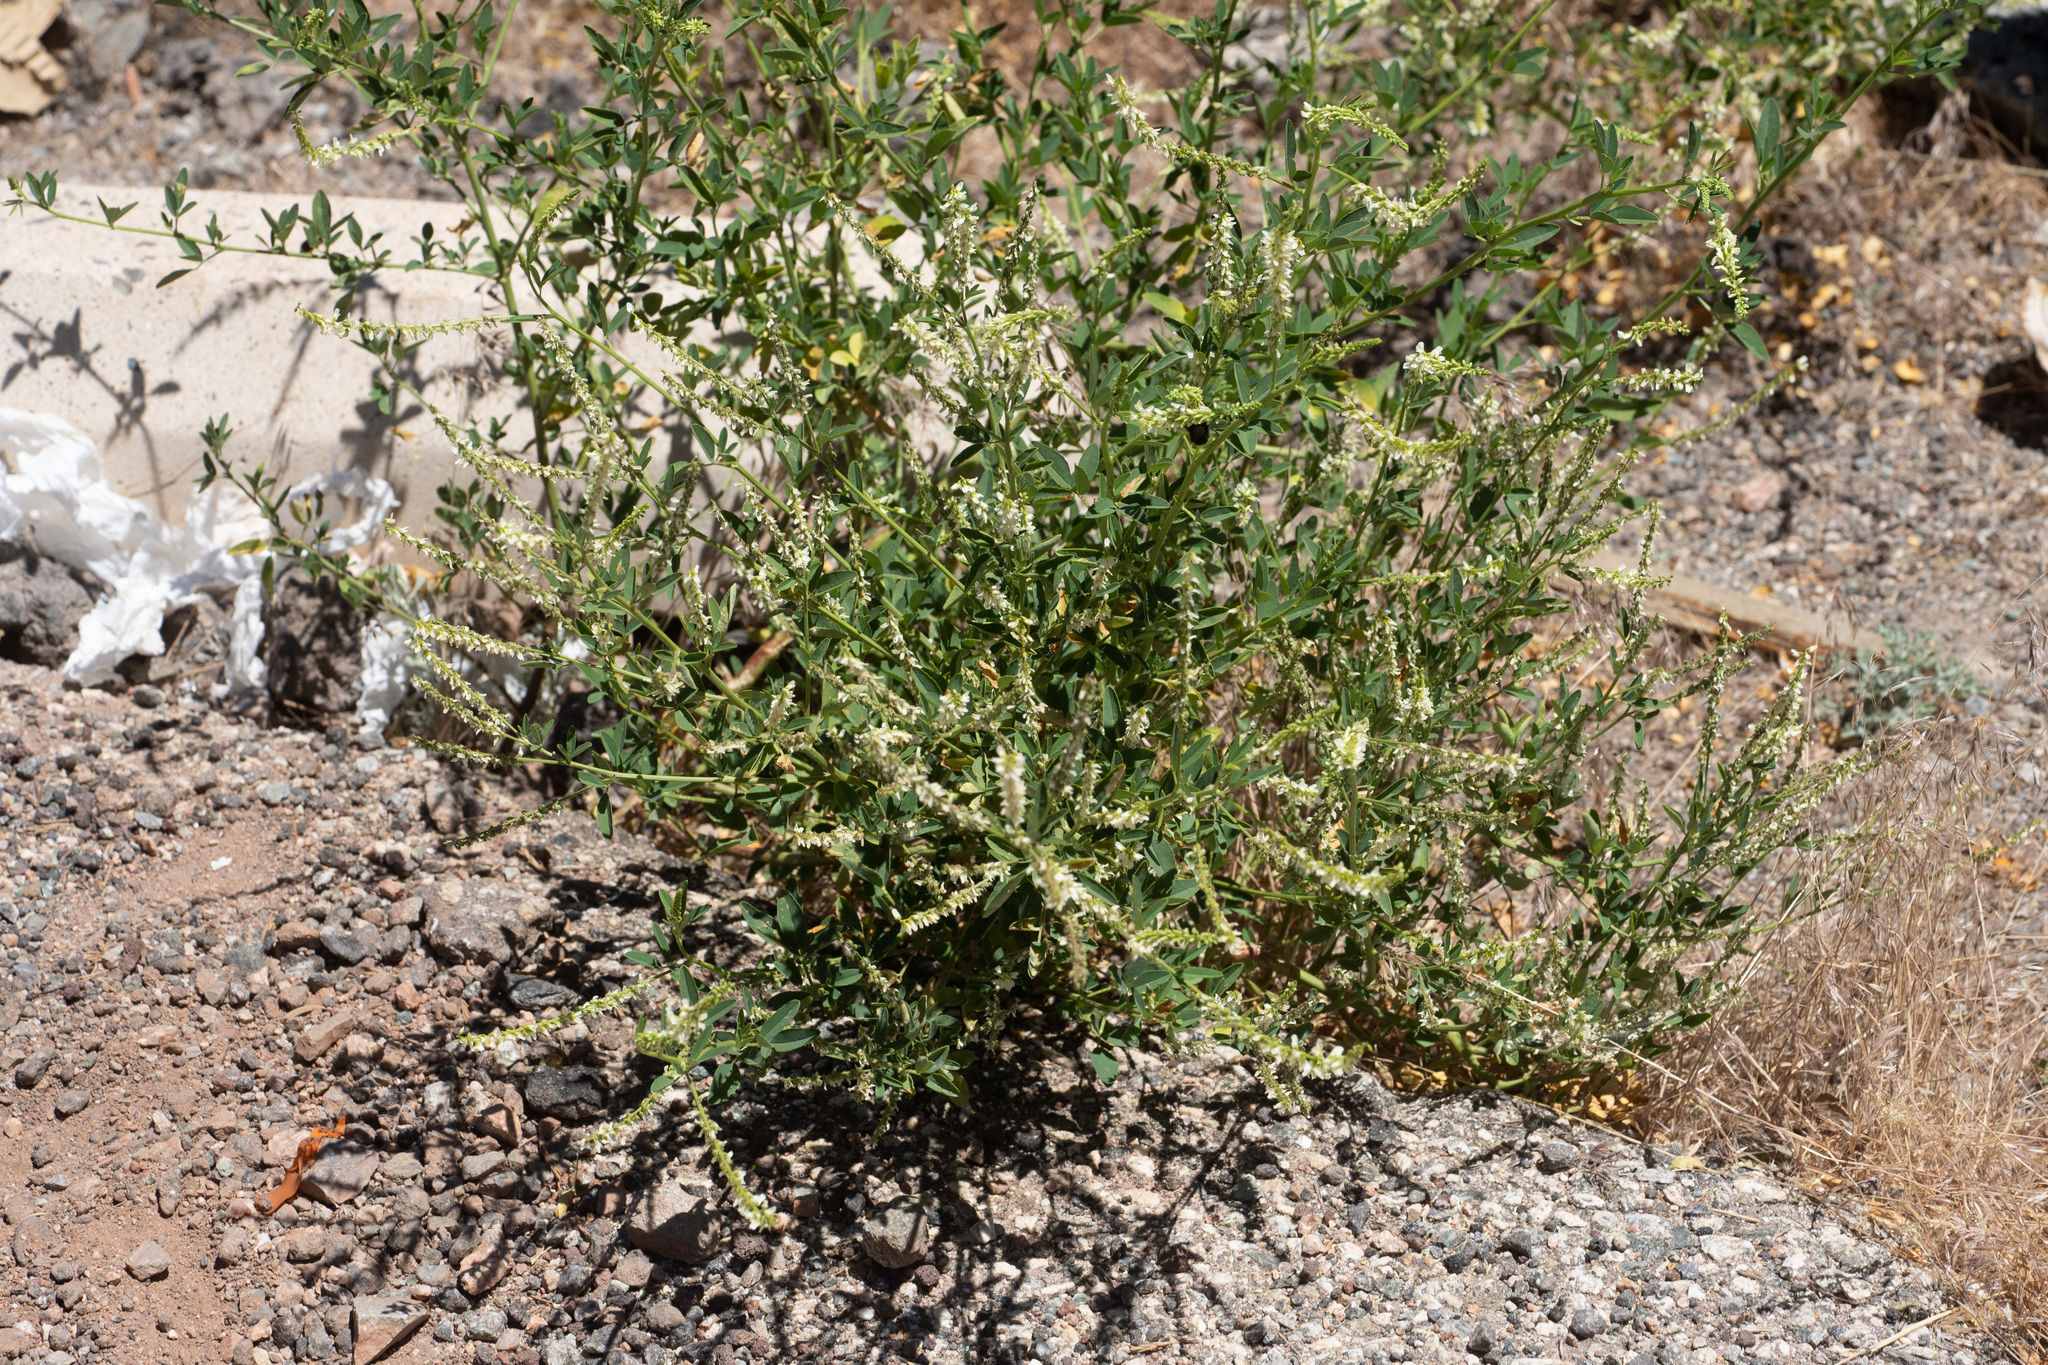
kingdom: Plantae
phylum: Tracheophyta
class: Magnoliopsida
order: Fabales
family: Fabaceae
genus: Melilotus
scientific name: Melilotus albus
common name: White melilot
